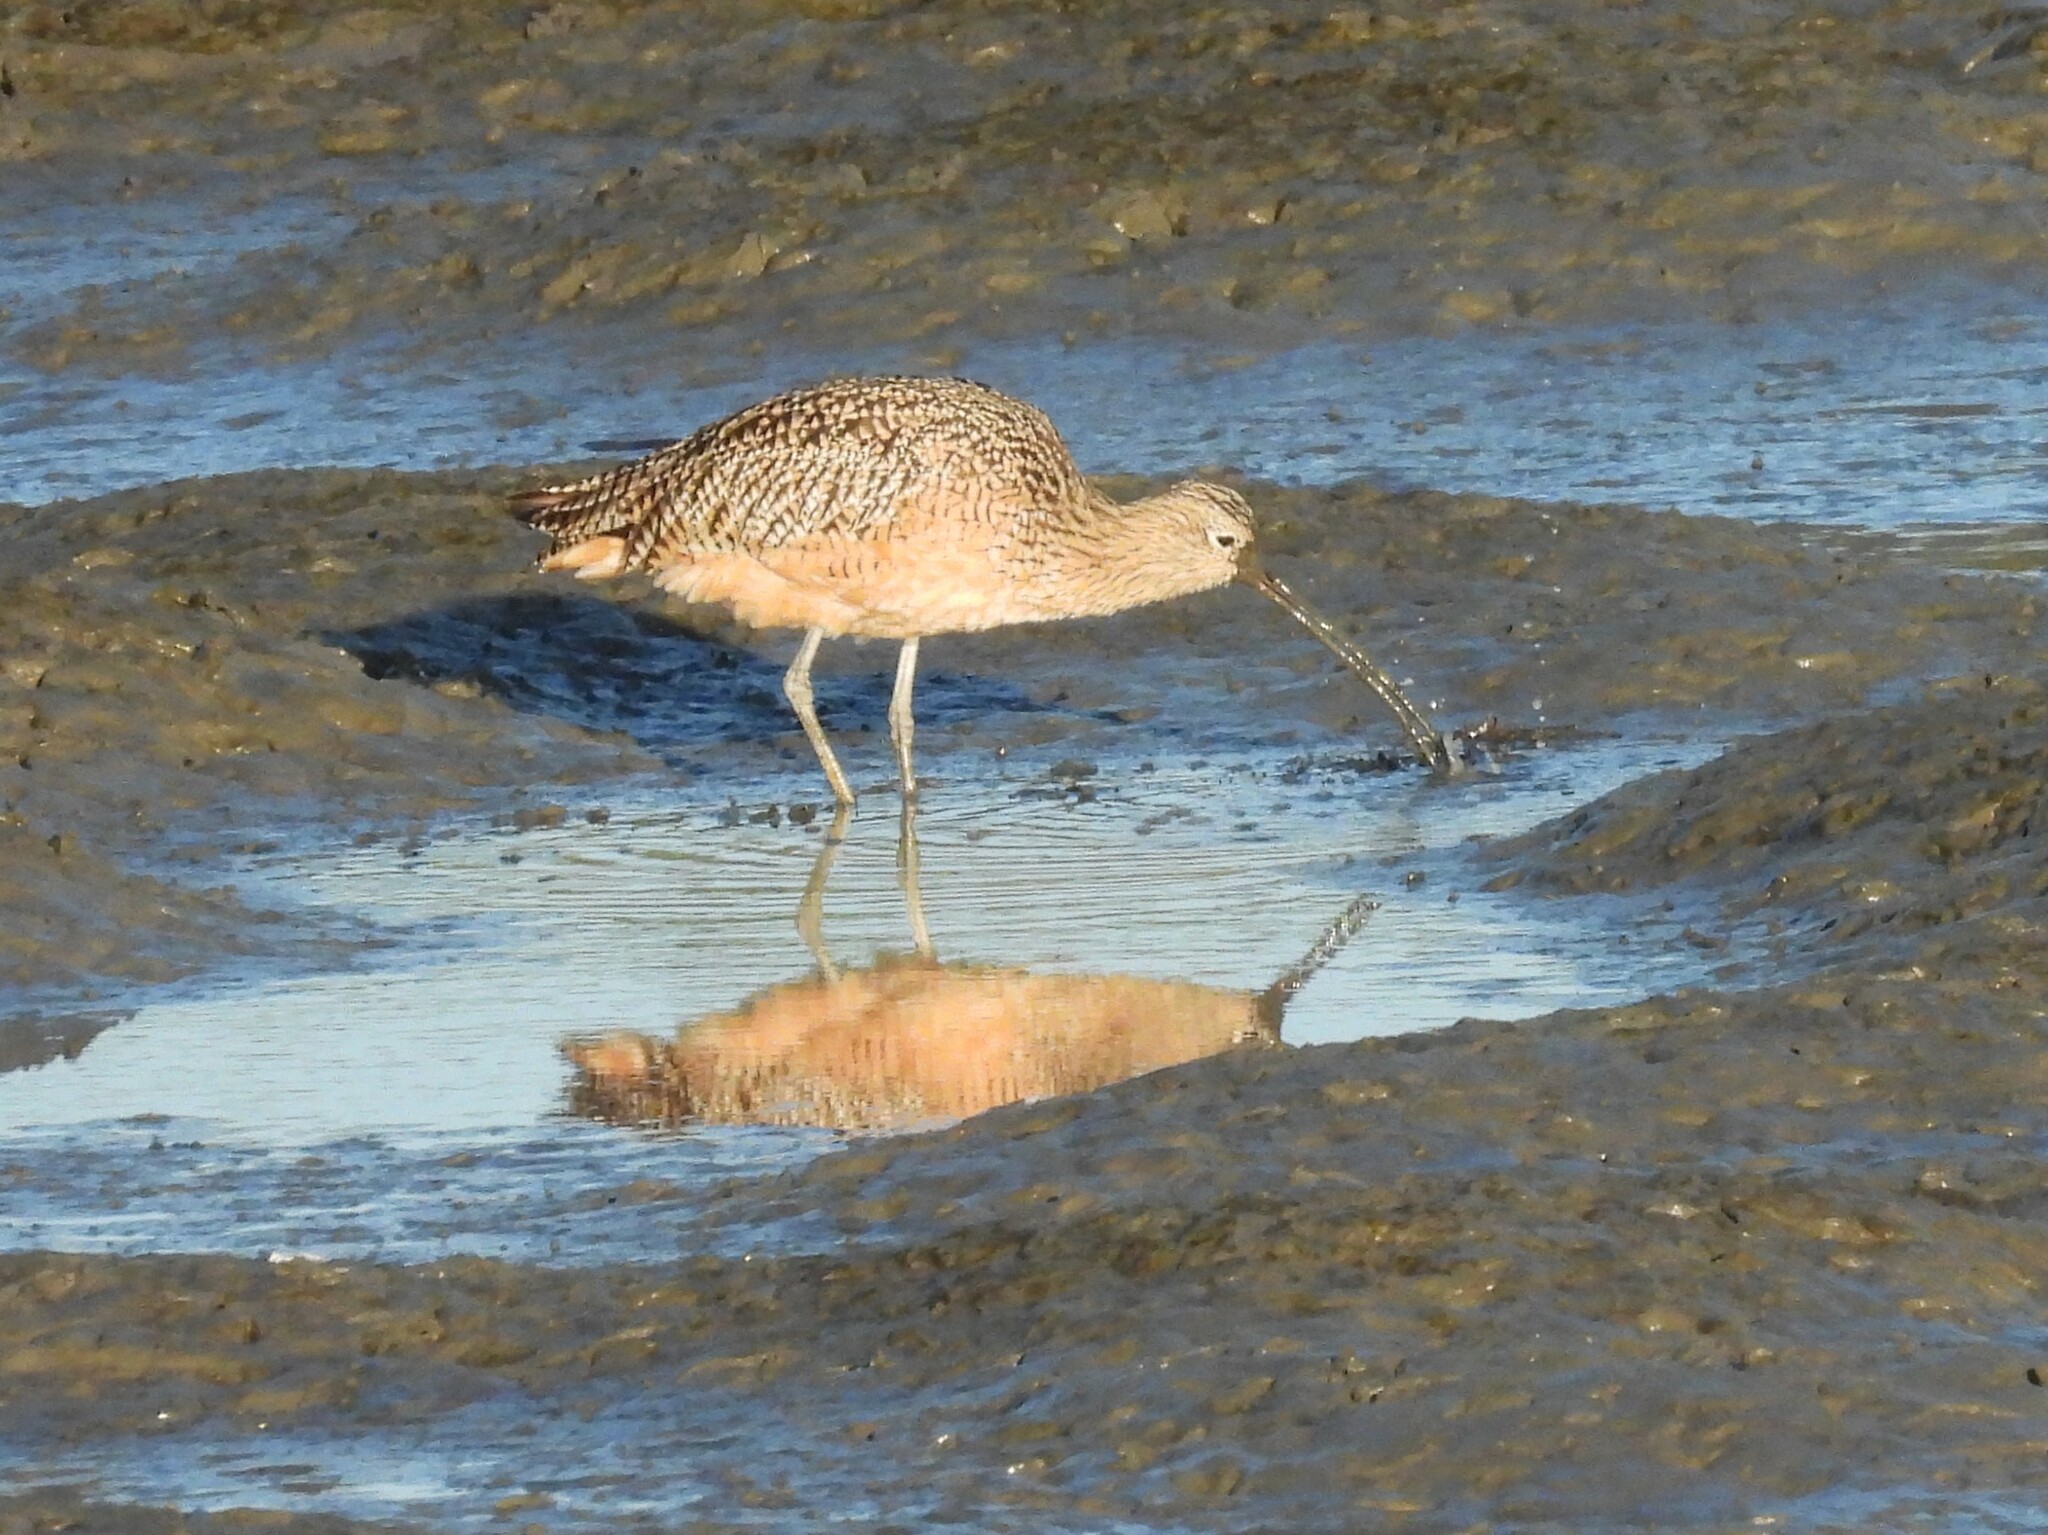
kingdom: Animalia
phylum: Chordata
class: Aves
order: Charadriiformes
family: Scolopacidae
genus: Numenius
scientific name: Numenius americanus
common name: Long-billed curlew
